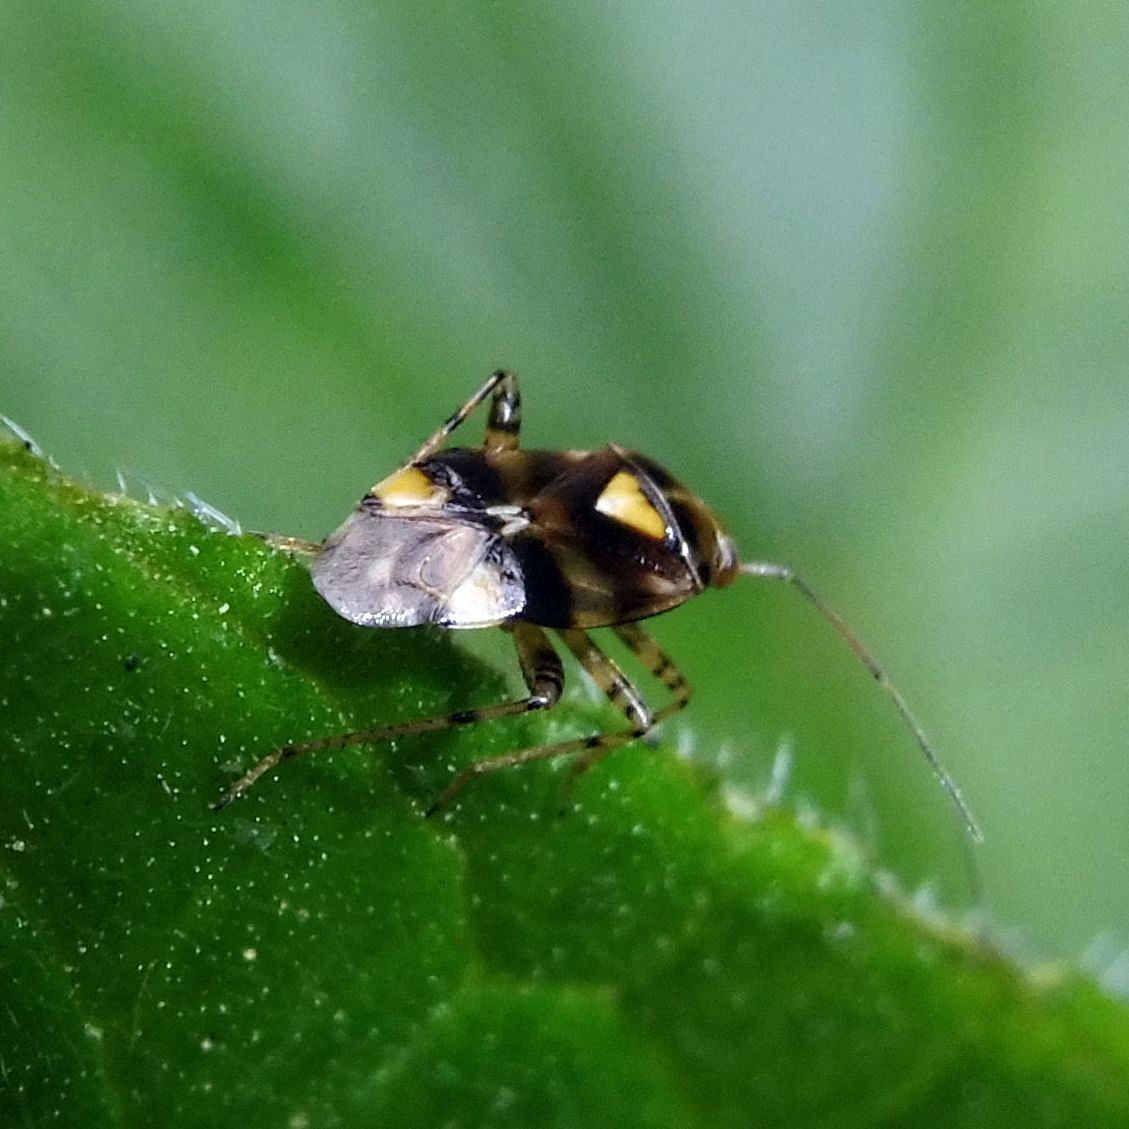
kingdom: Animalia
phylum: Arthropoda
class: Insecta
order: Hemiptera
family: Miridae
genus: Liocoris
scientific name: Liocoris tripustulatus
